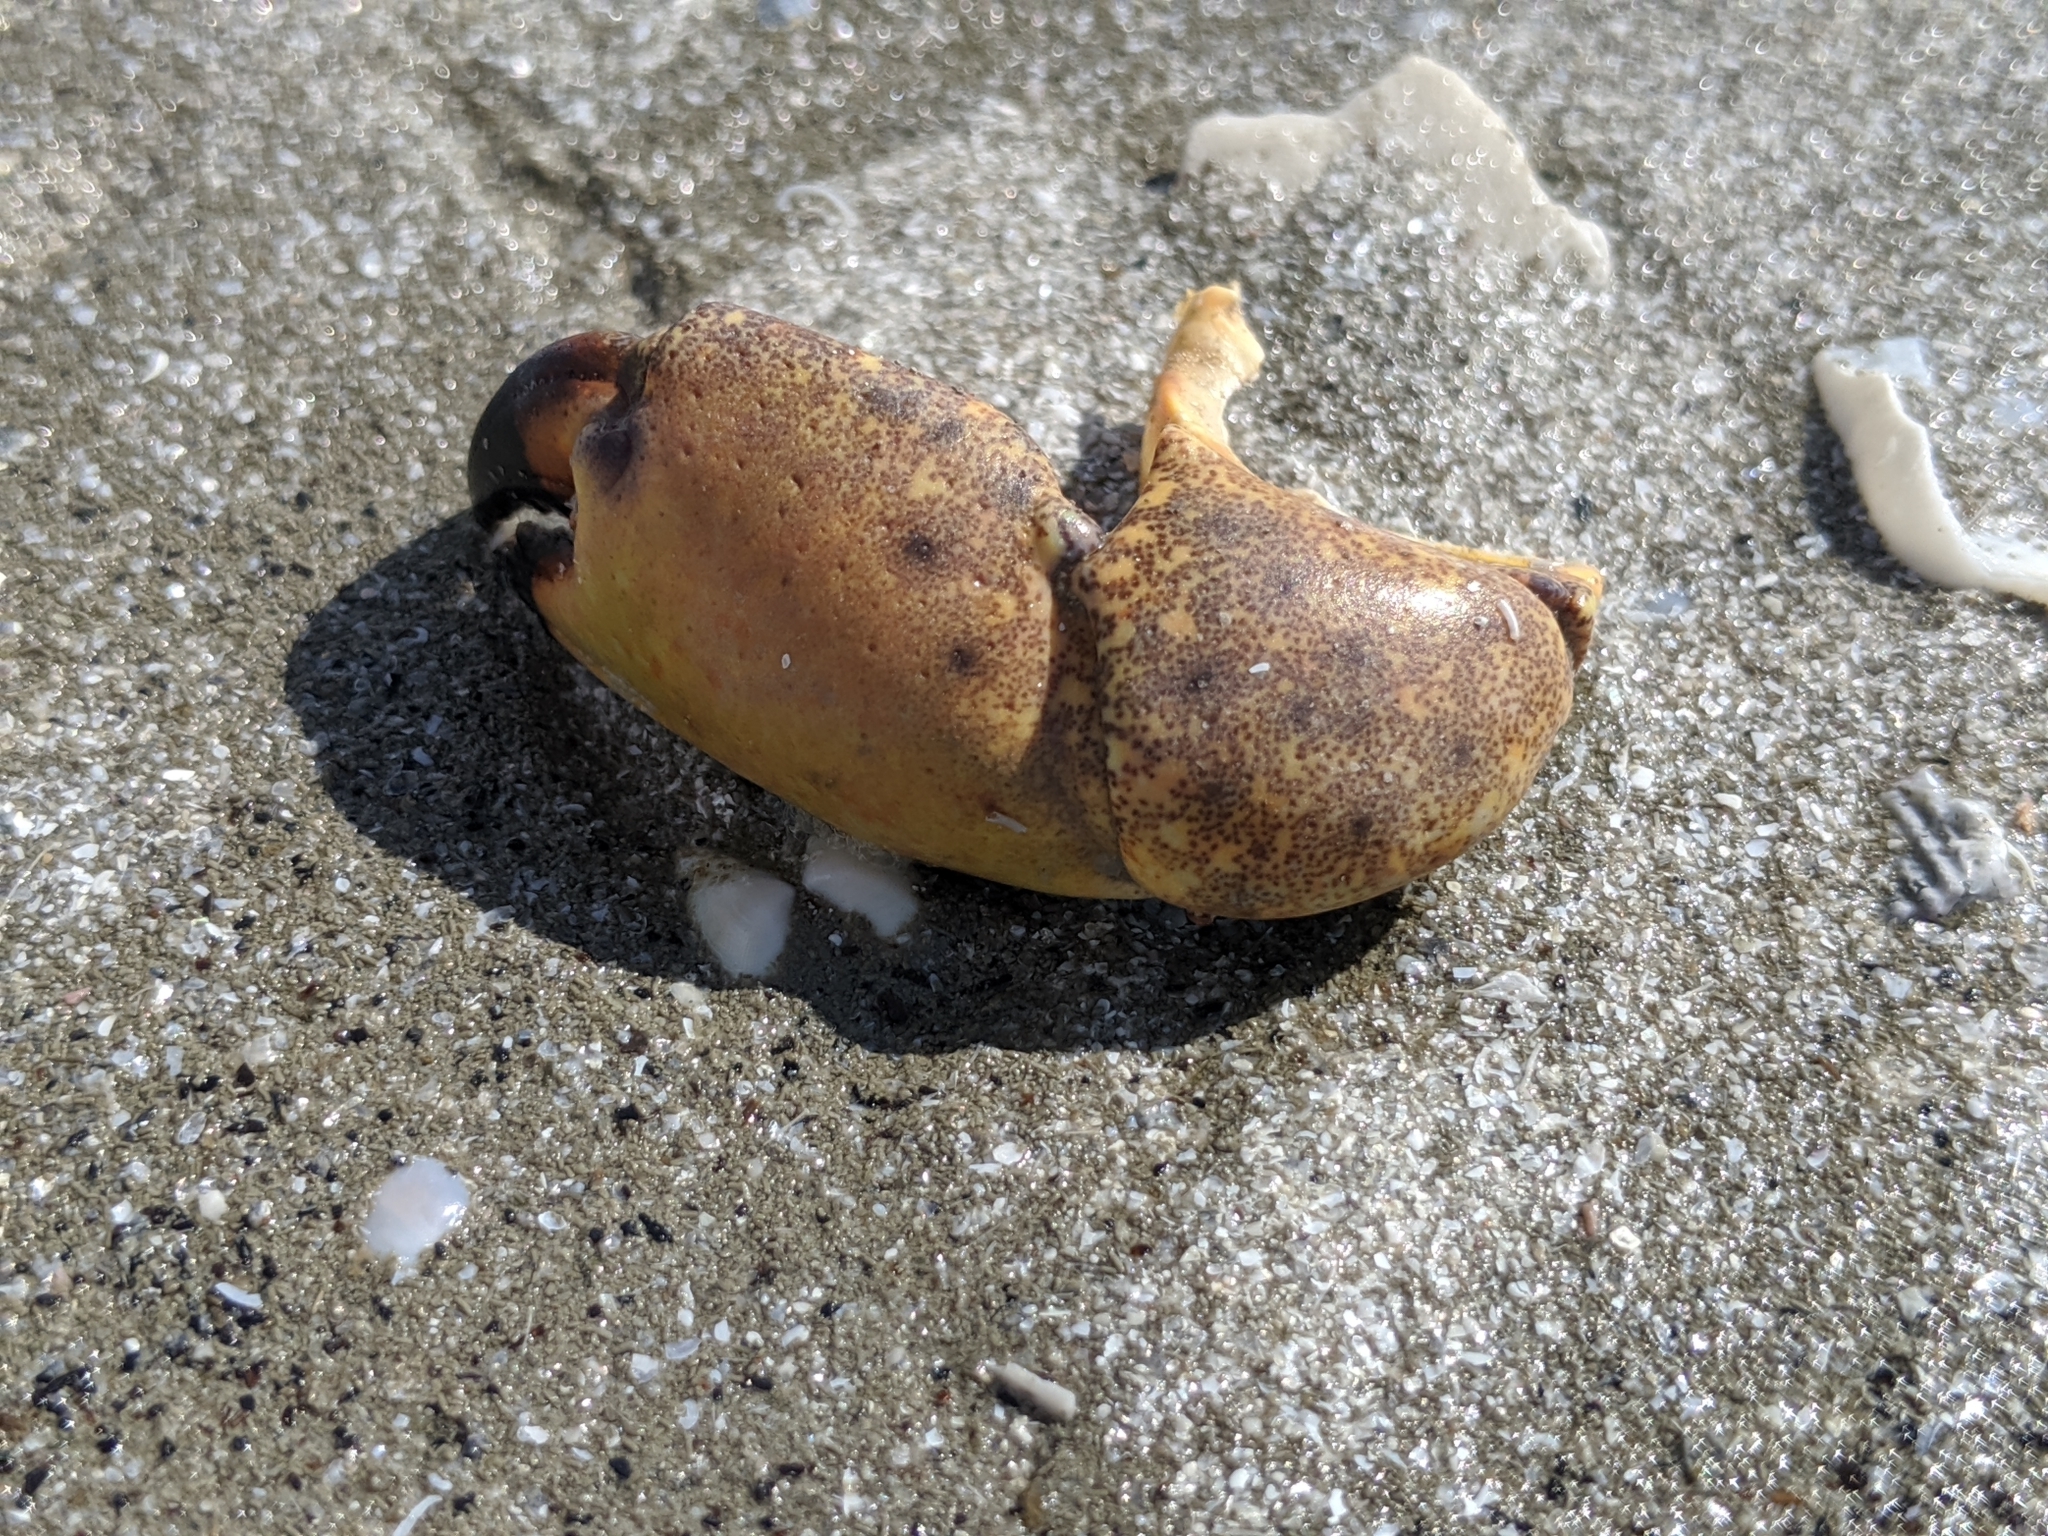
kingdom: Animalia
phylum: Arthropoda
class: Malacostraca
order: Decapoda
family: Menippidae
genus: Menippe
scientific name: Menippe mercenaria
